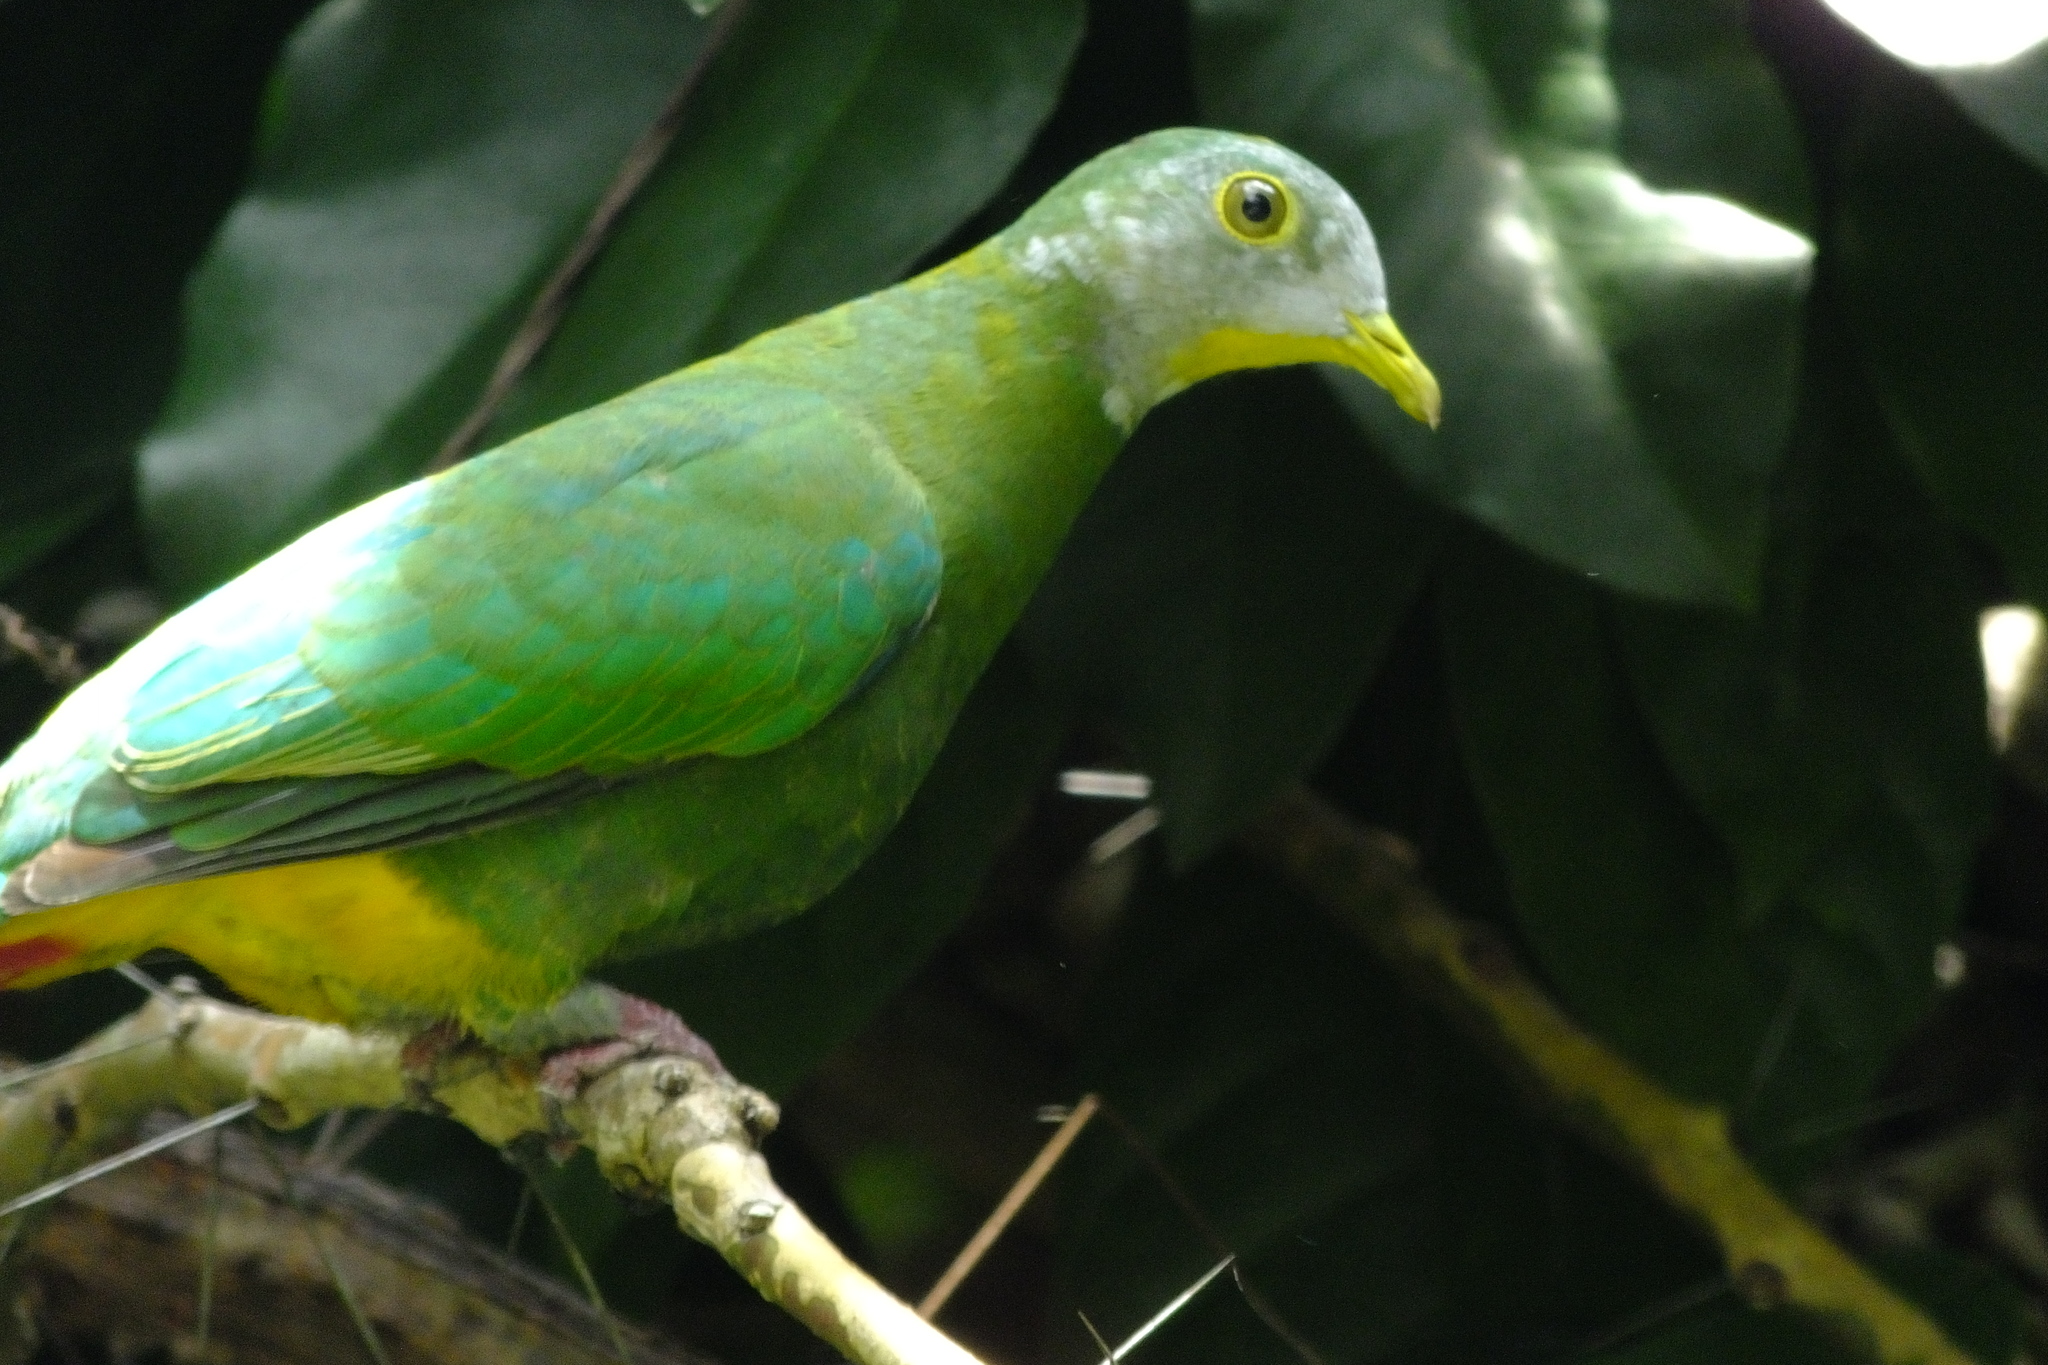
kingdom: Animalia
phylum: Chordata
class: Aves
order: Columbiformes
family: Columbidae
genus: Ptilinopus
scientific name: Ptilinopus melanospilus
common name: Black-naped fruit dove
